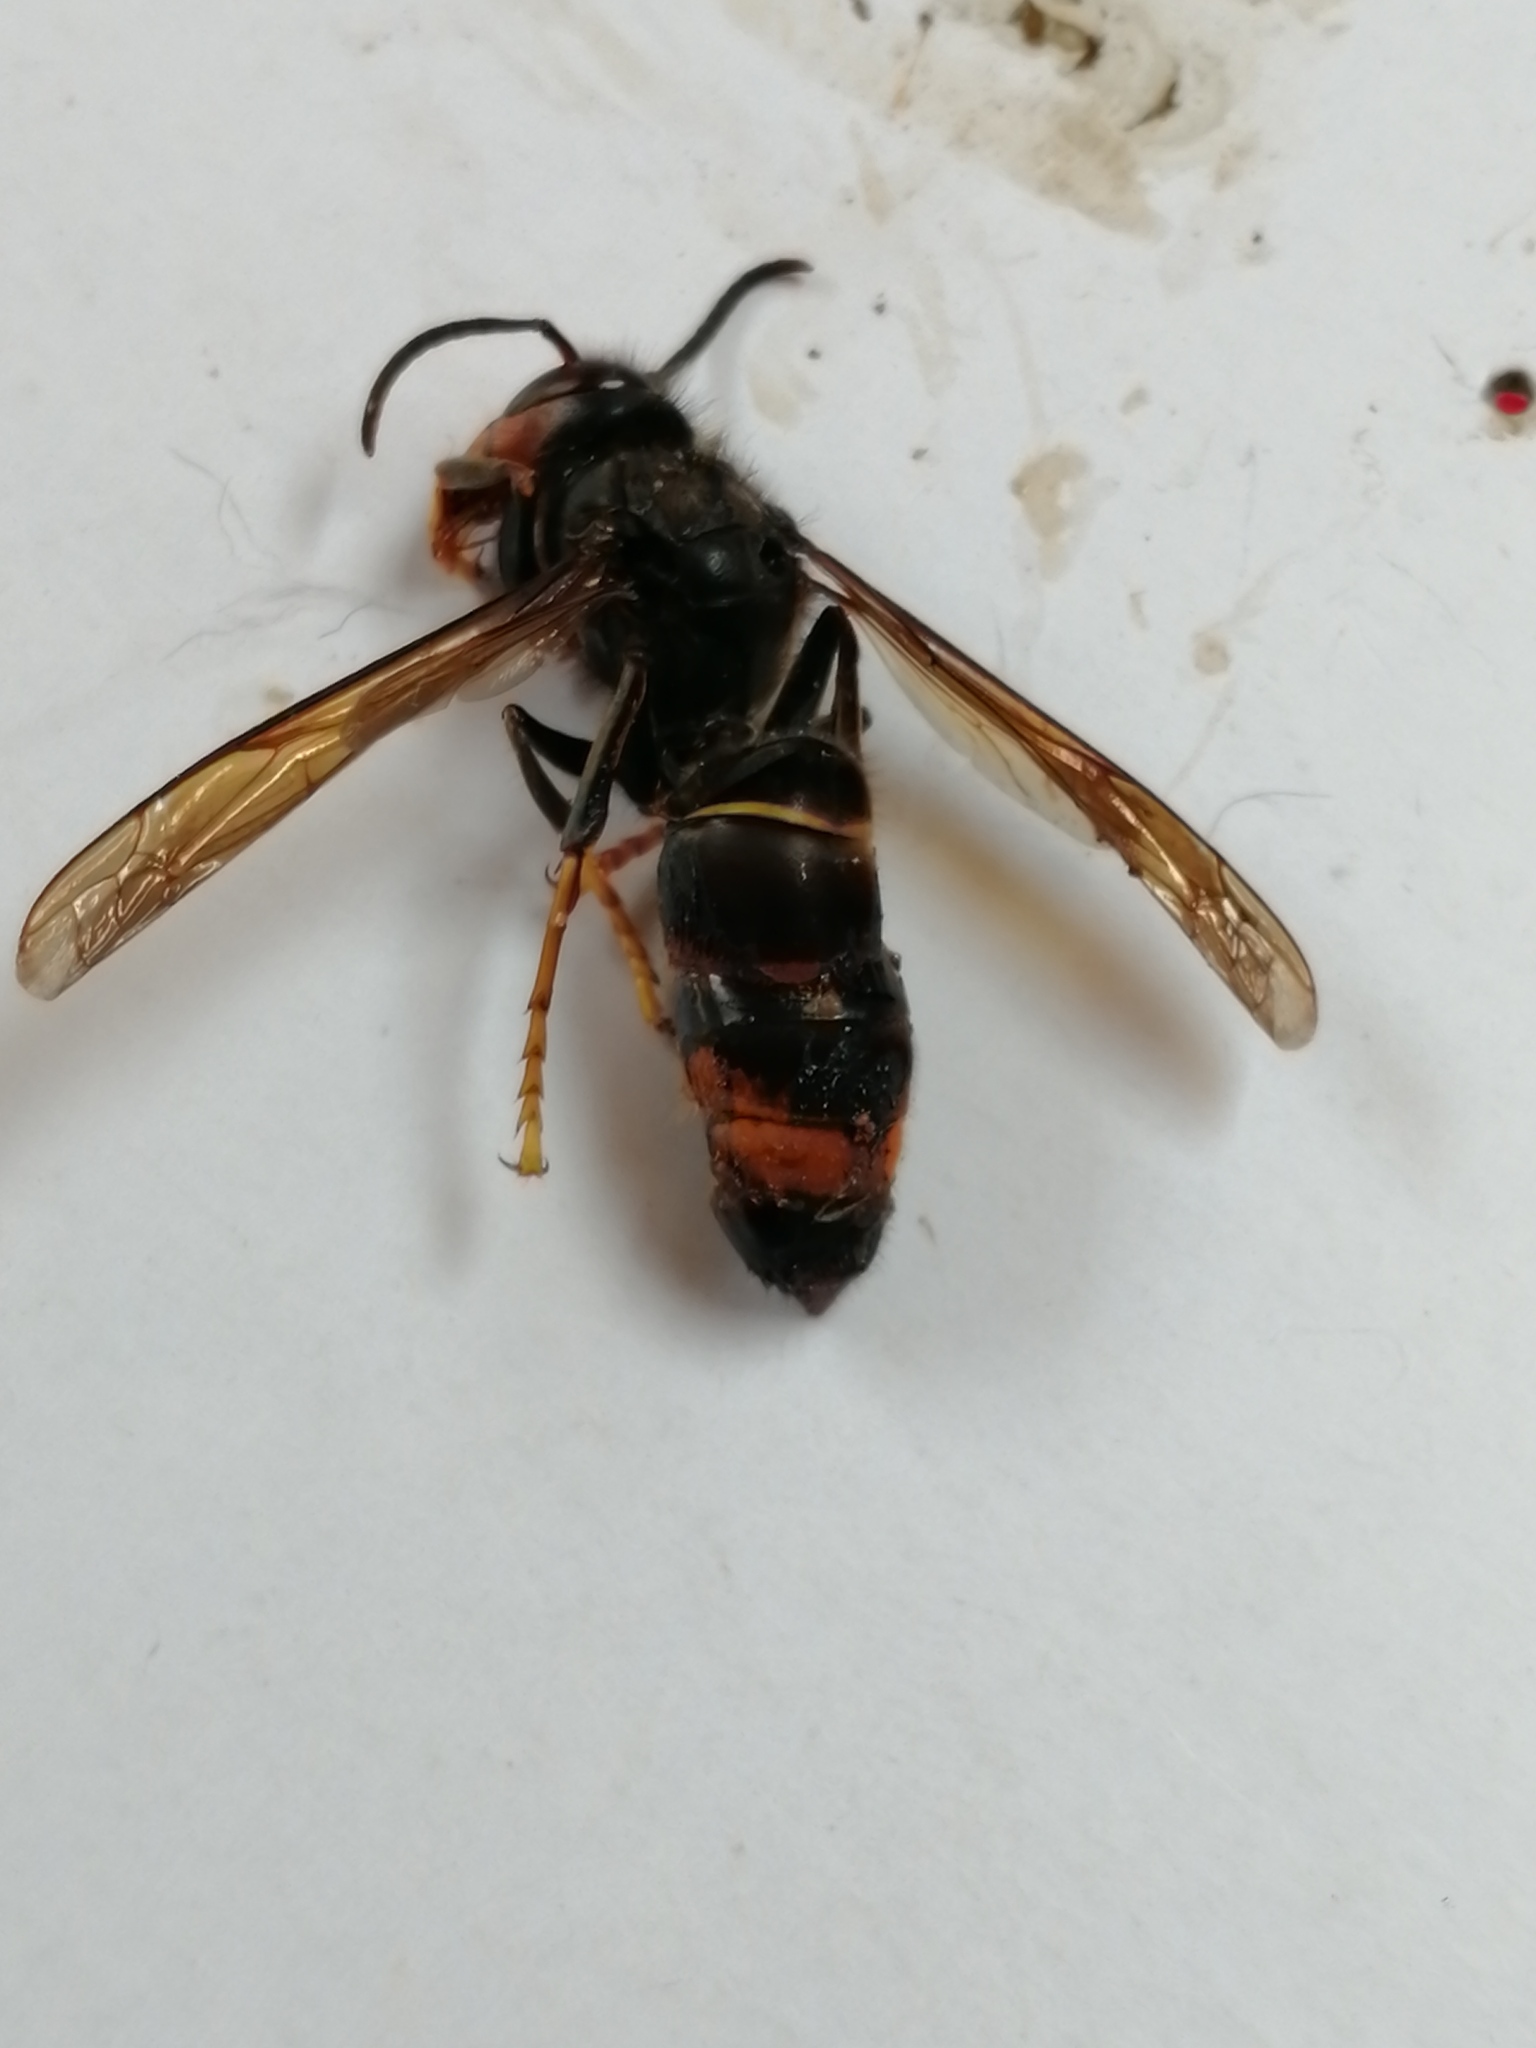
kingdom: Animalia
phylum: Arthropoda
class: Insecta
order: Hymenoptera
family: Vespidae
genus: Vespa
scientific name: Vespa velutina
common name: Asian hornet
